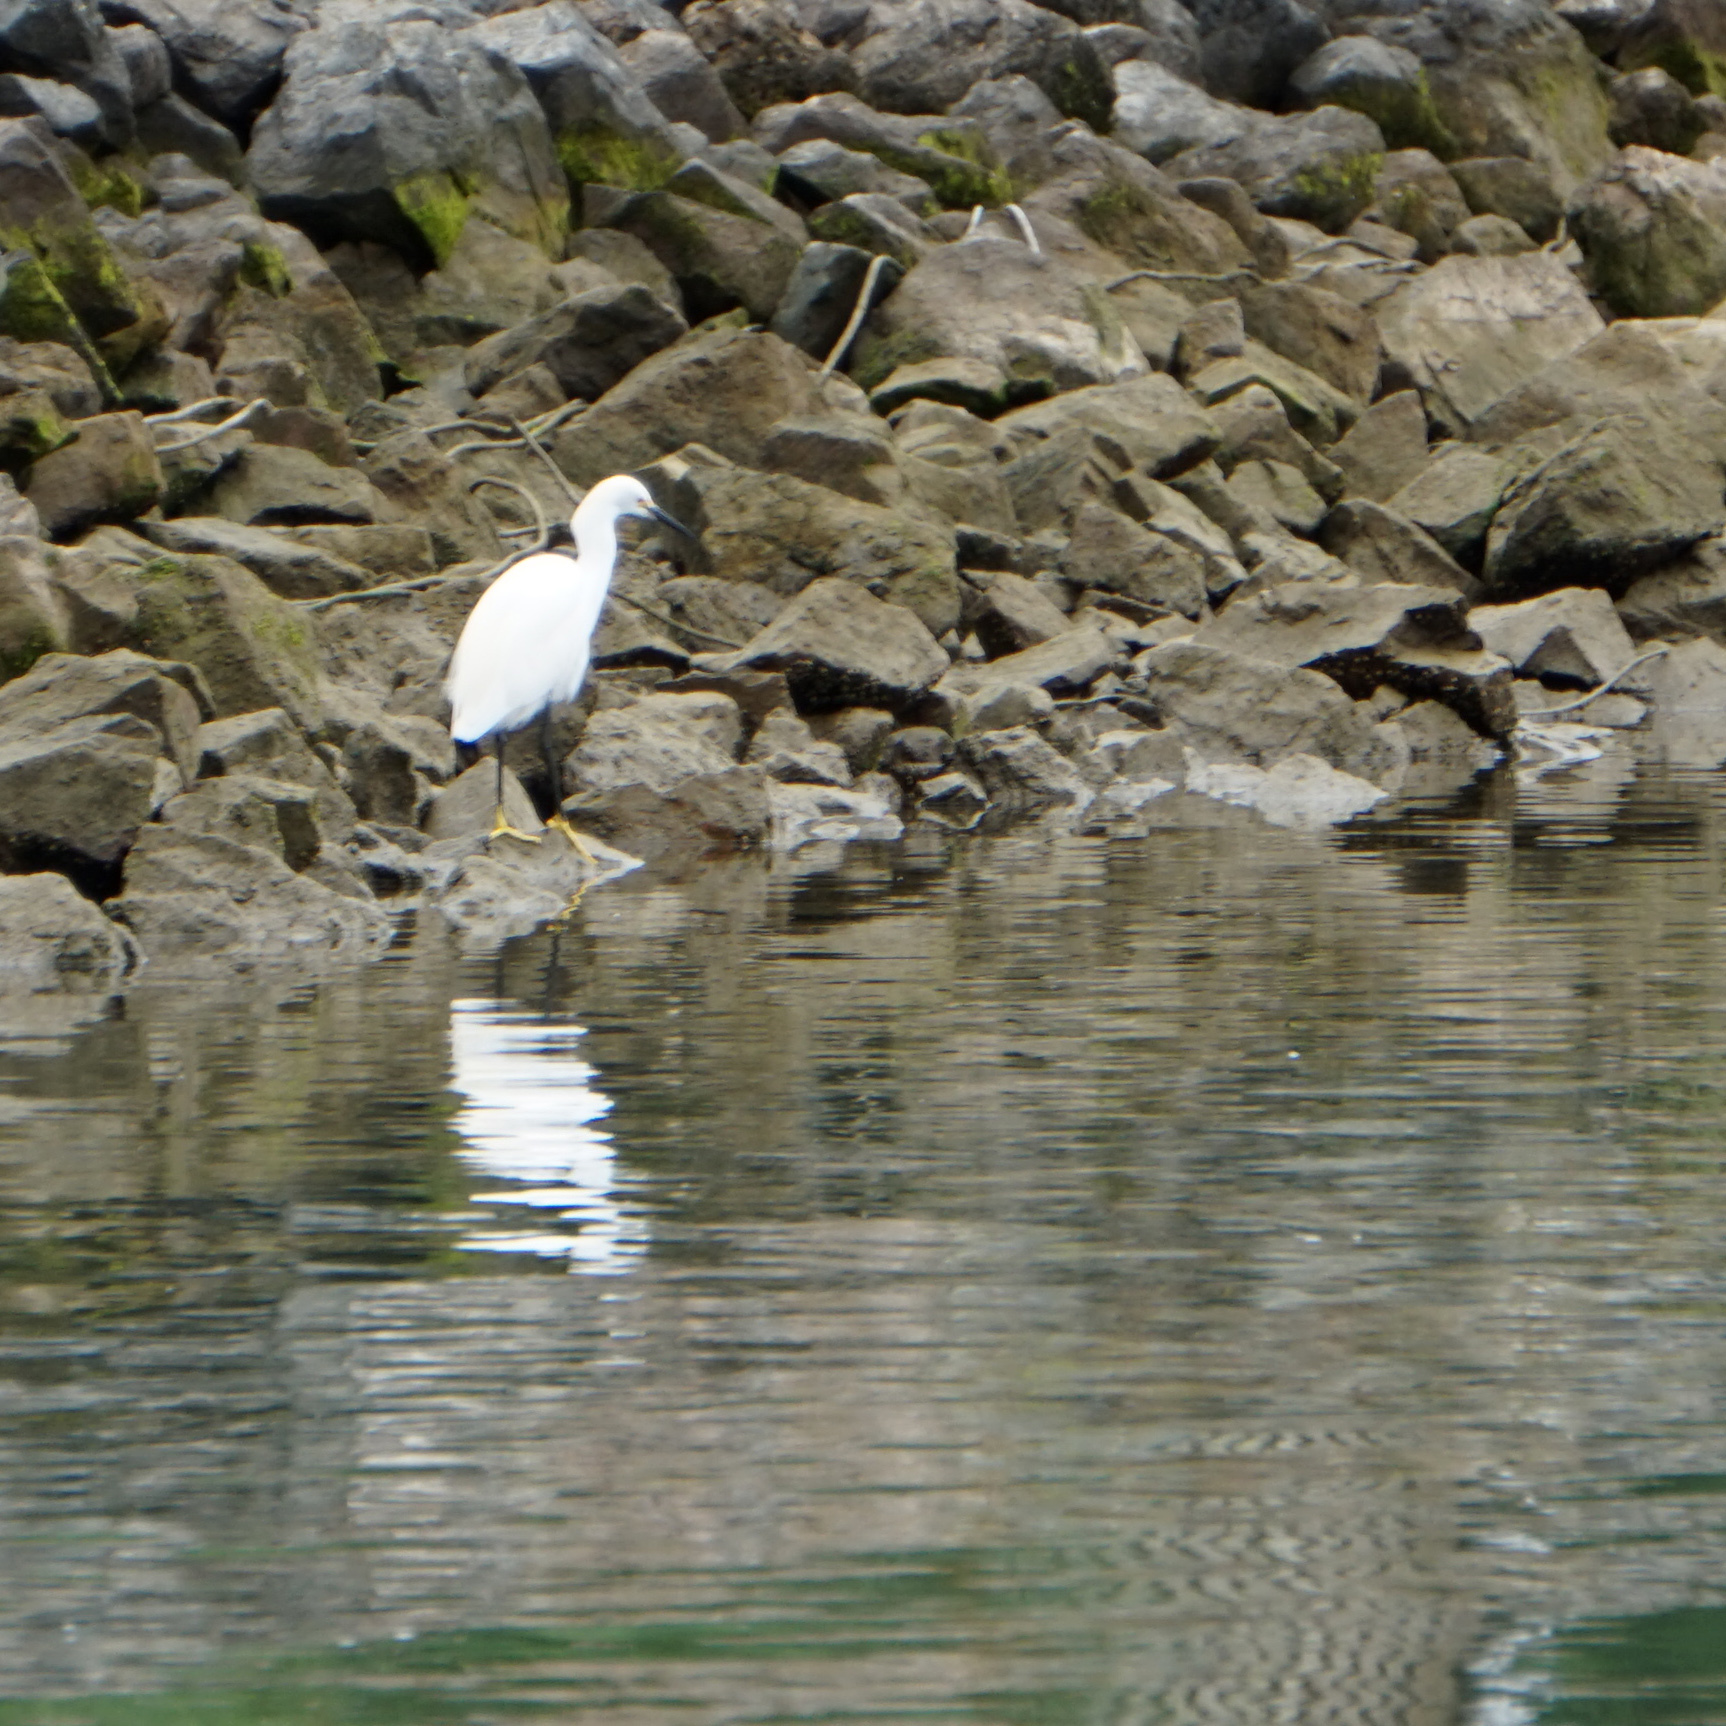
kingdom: Animalia
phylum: Chordata
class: Aves
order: Pelecaniformes
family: Ardeidae
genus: Egretta
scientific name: Egretta thula
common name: Snowy egret
